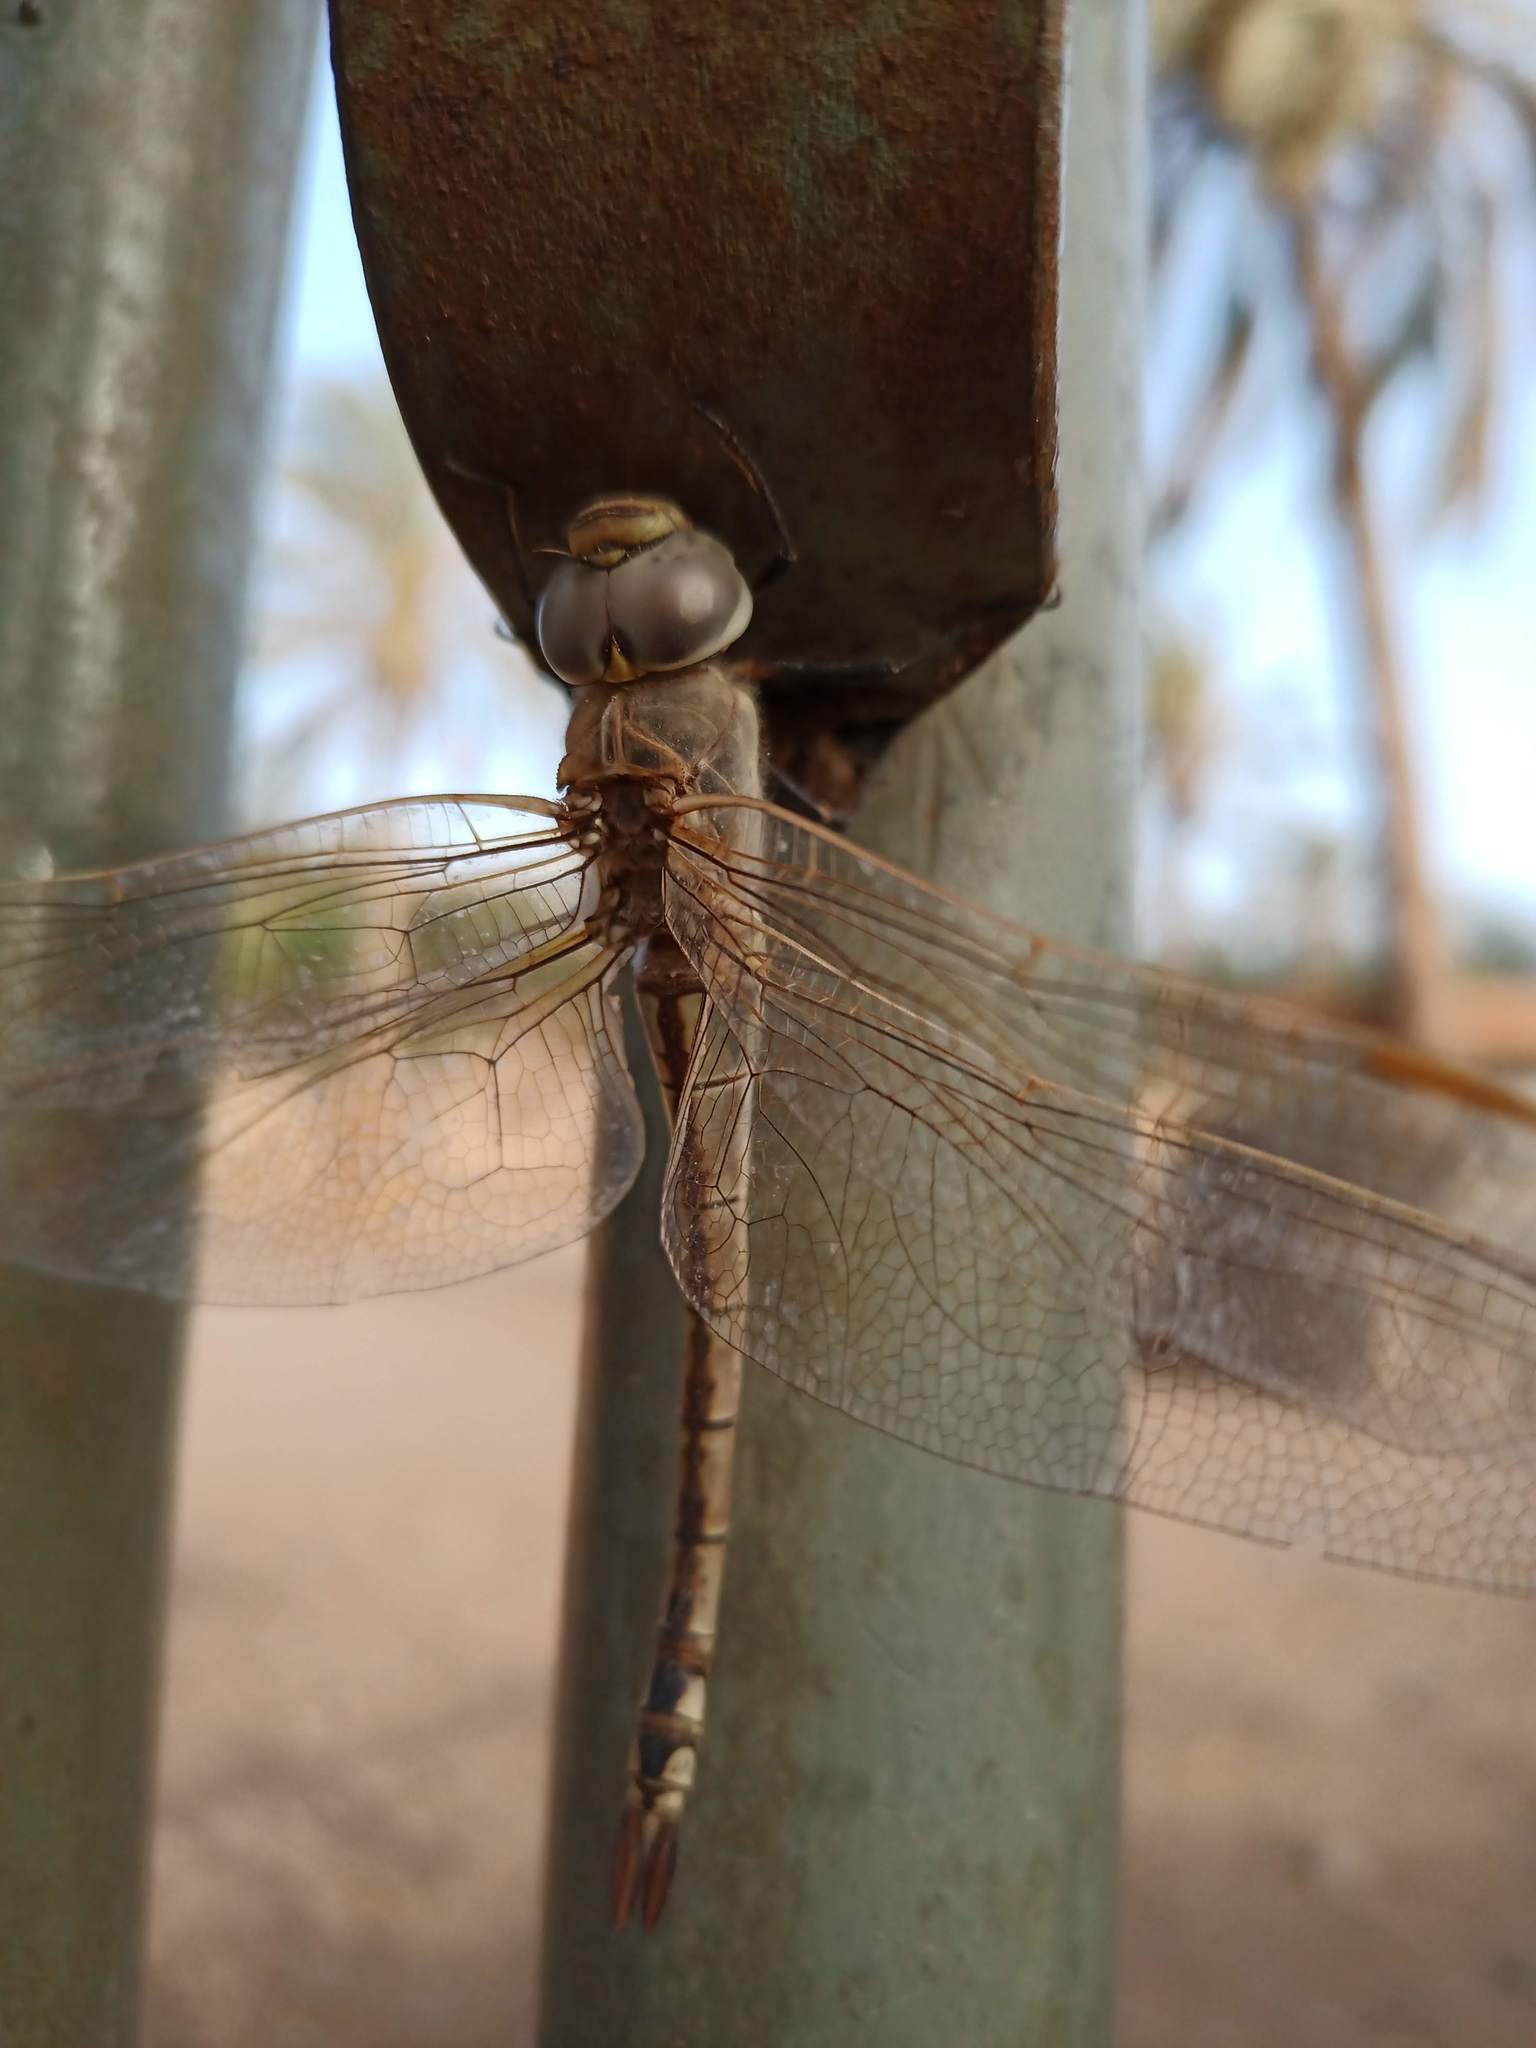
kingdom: Animalia
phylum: Arthropoda
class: Insecta
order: Odonata
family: Aeshnidae
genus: Anax
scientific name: Anax ephippiger
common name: Vagrant emperor
